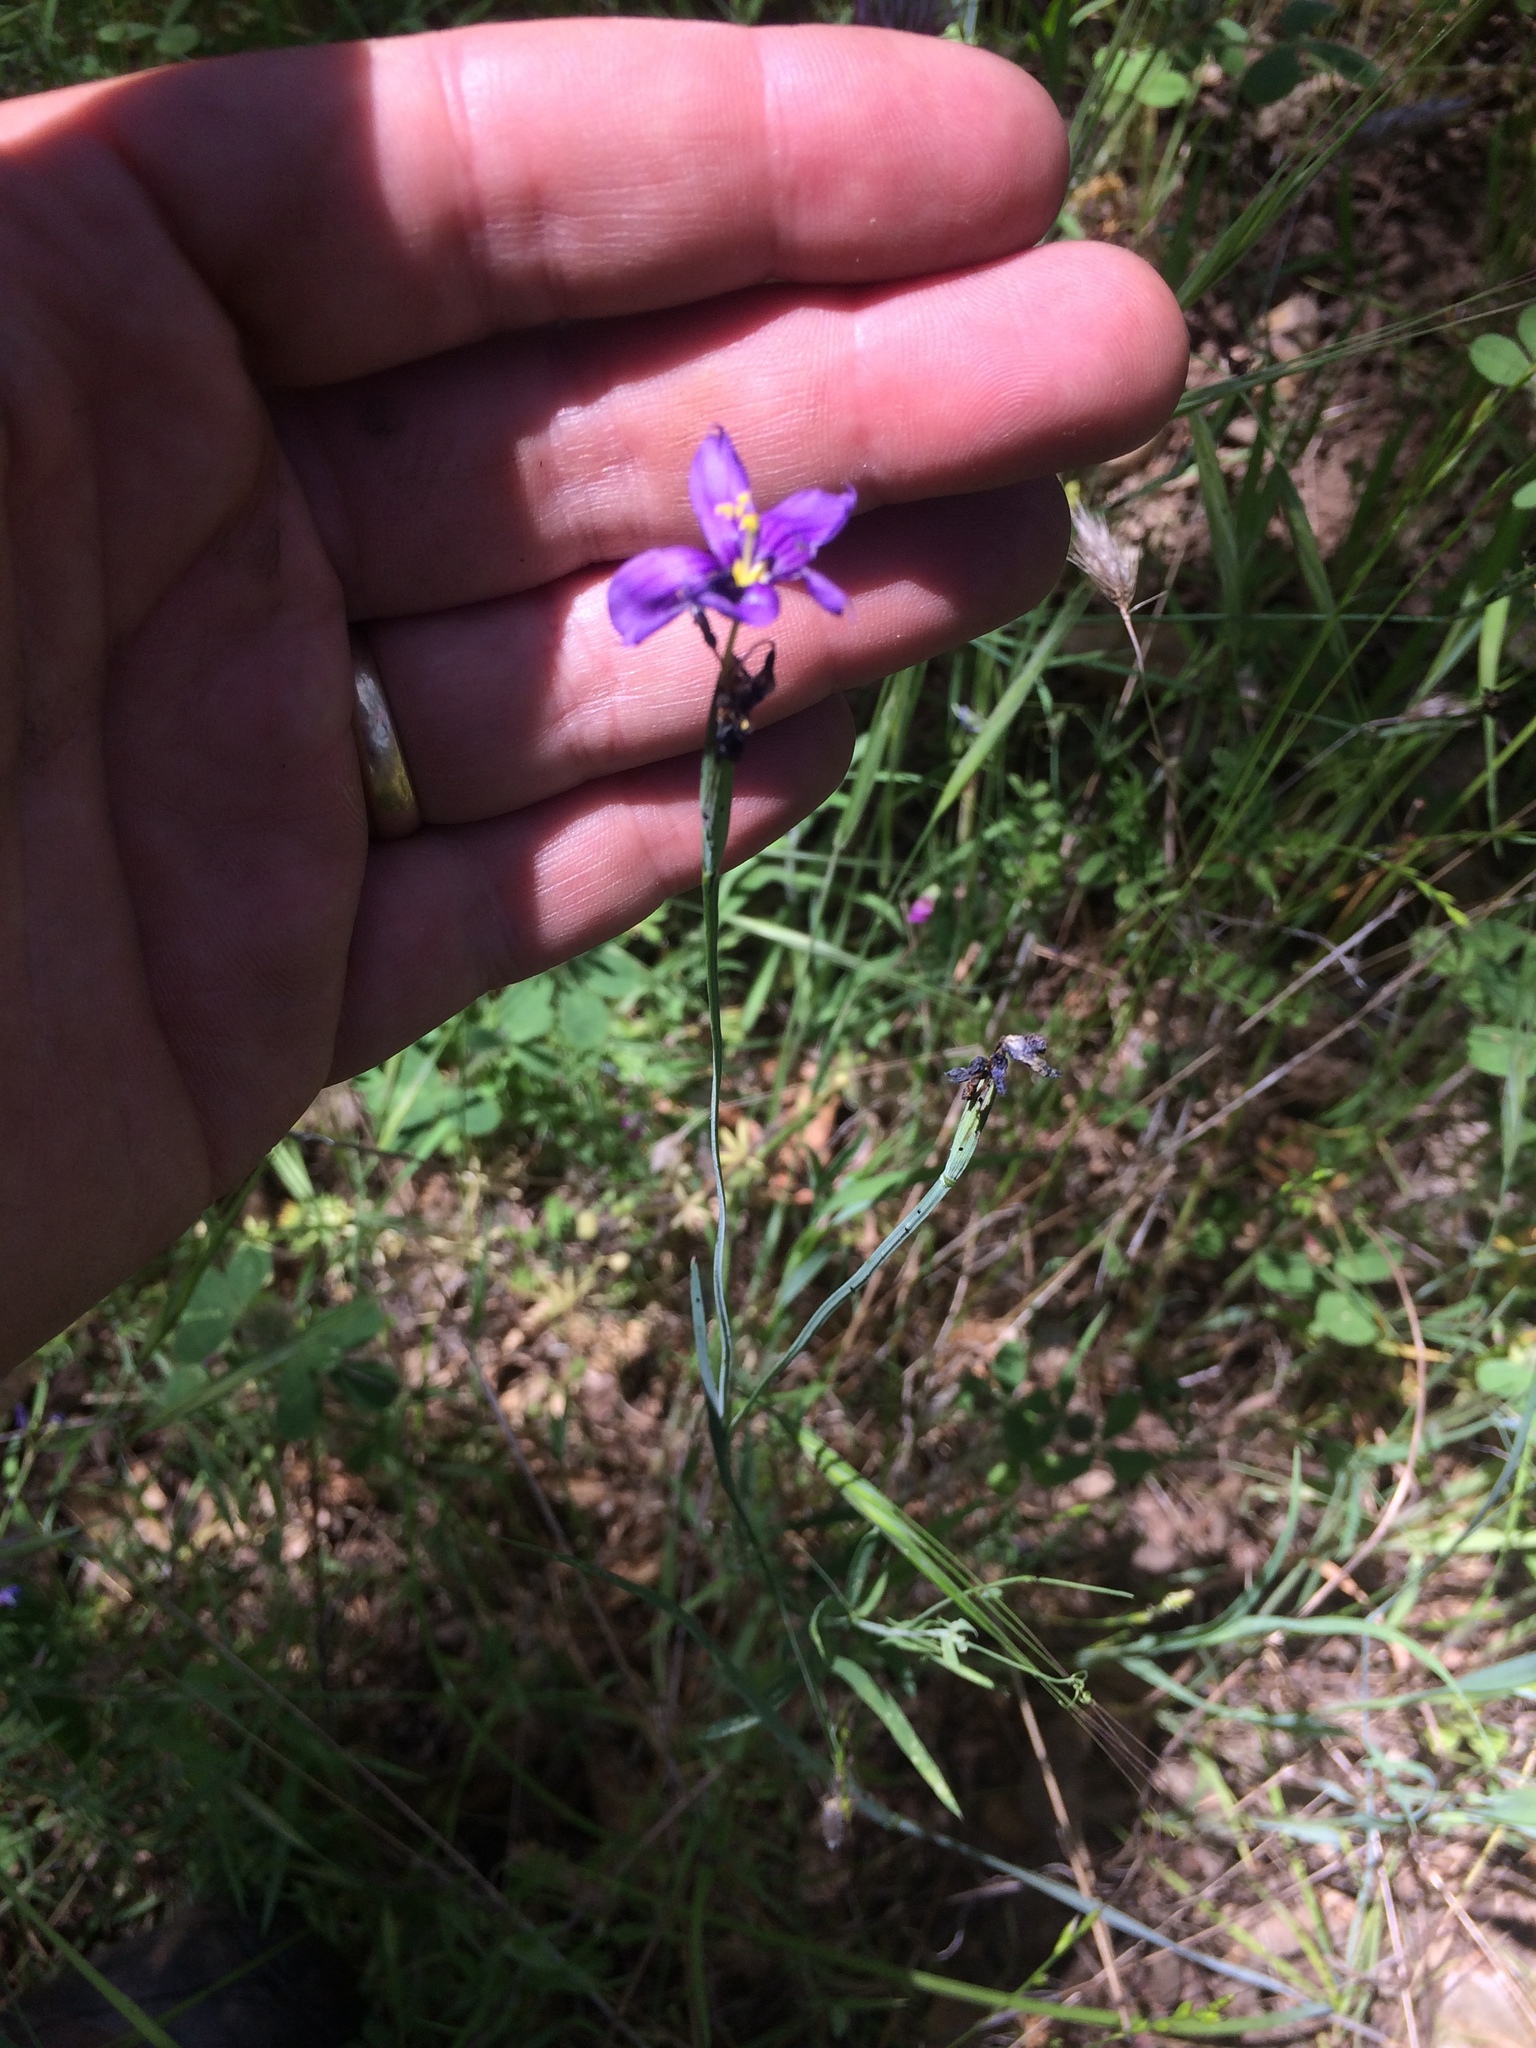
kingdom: Plantae
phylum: Tracheophyta
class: Liliopsida
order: Asparagales
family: Iridaceae
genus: Sisyrinchium
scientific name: Sisyrinchium bellum
